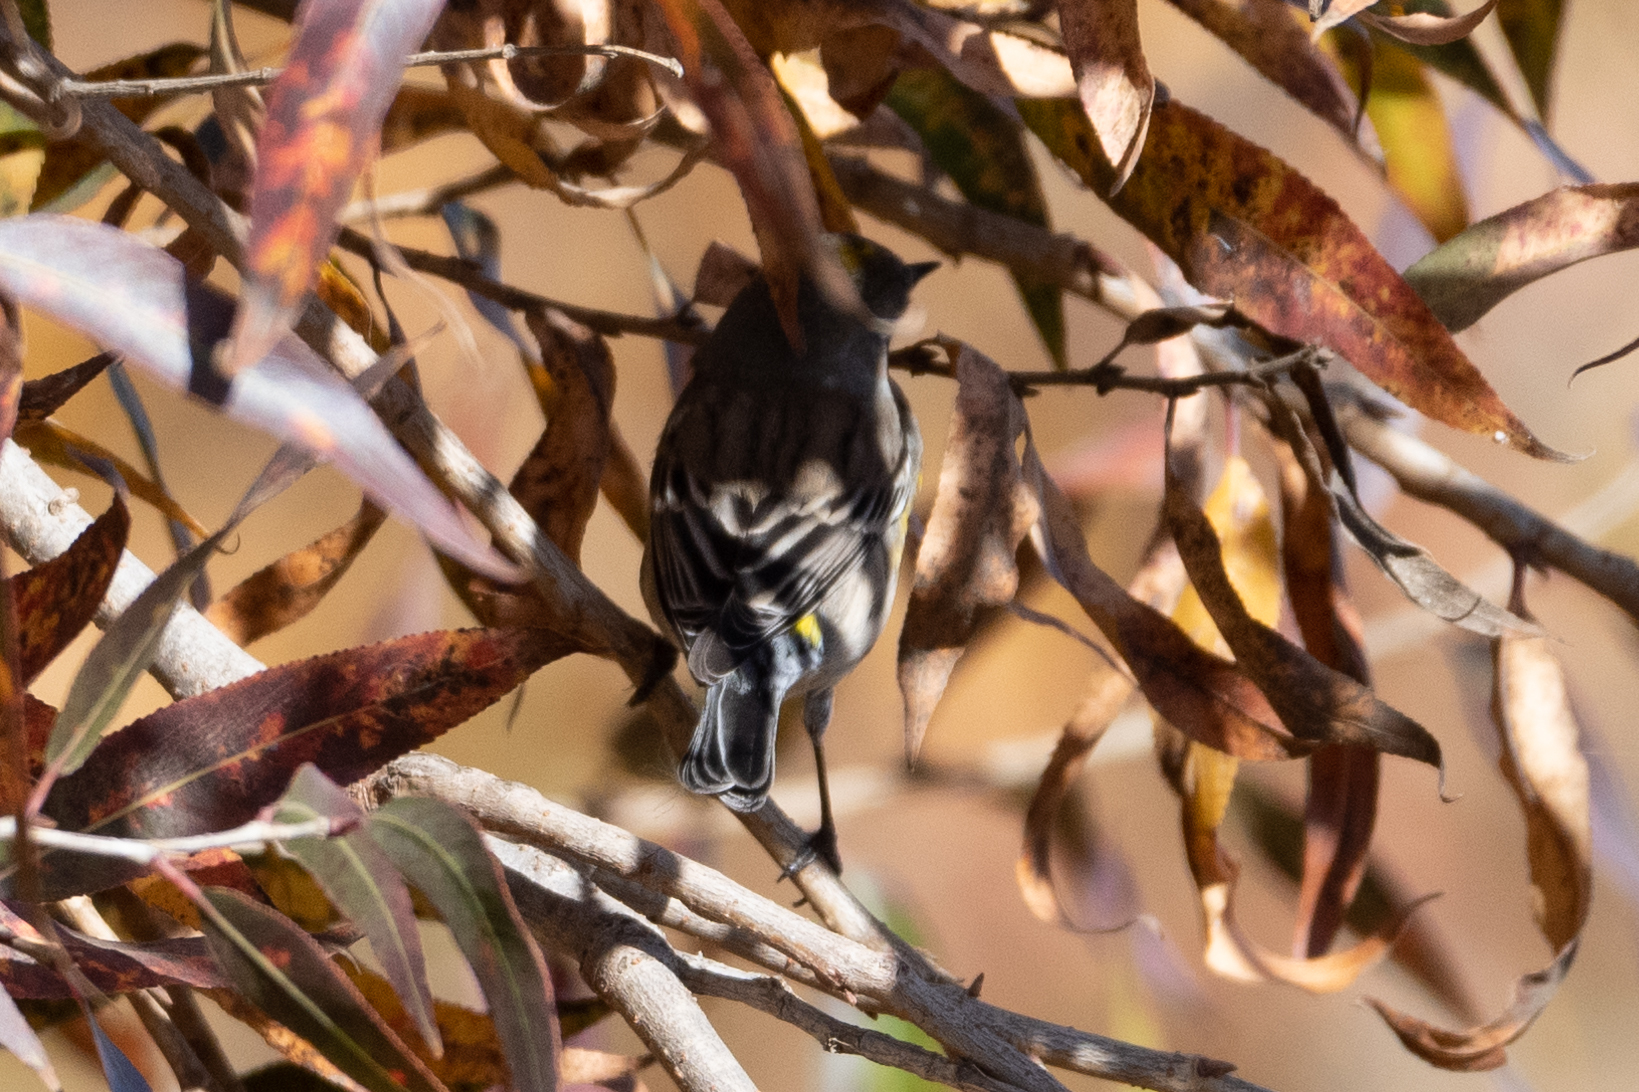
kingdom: Animalia
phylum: Chordata
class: Aves
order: Passeriformes
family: Parulidae
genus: Setophaga
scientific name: Setophaga coronata
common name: Myrtle warbler
